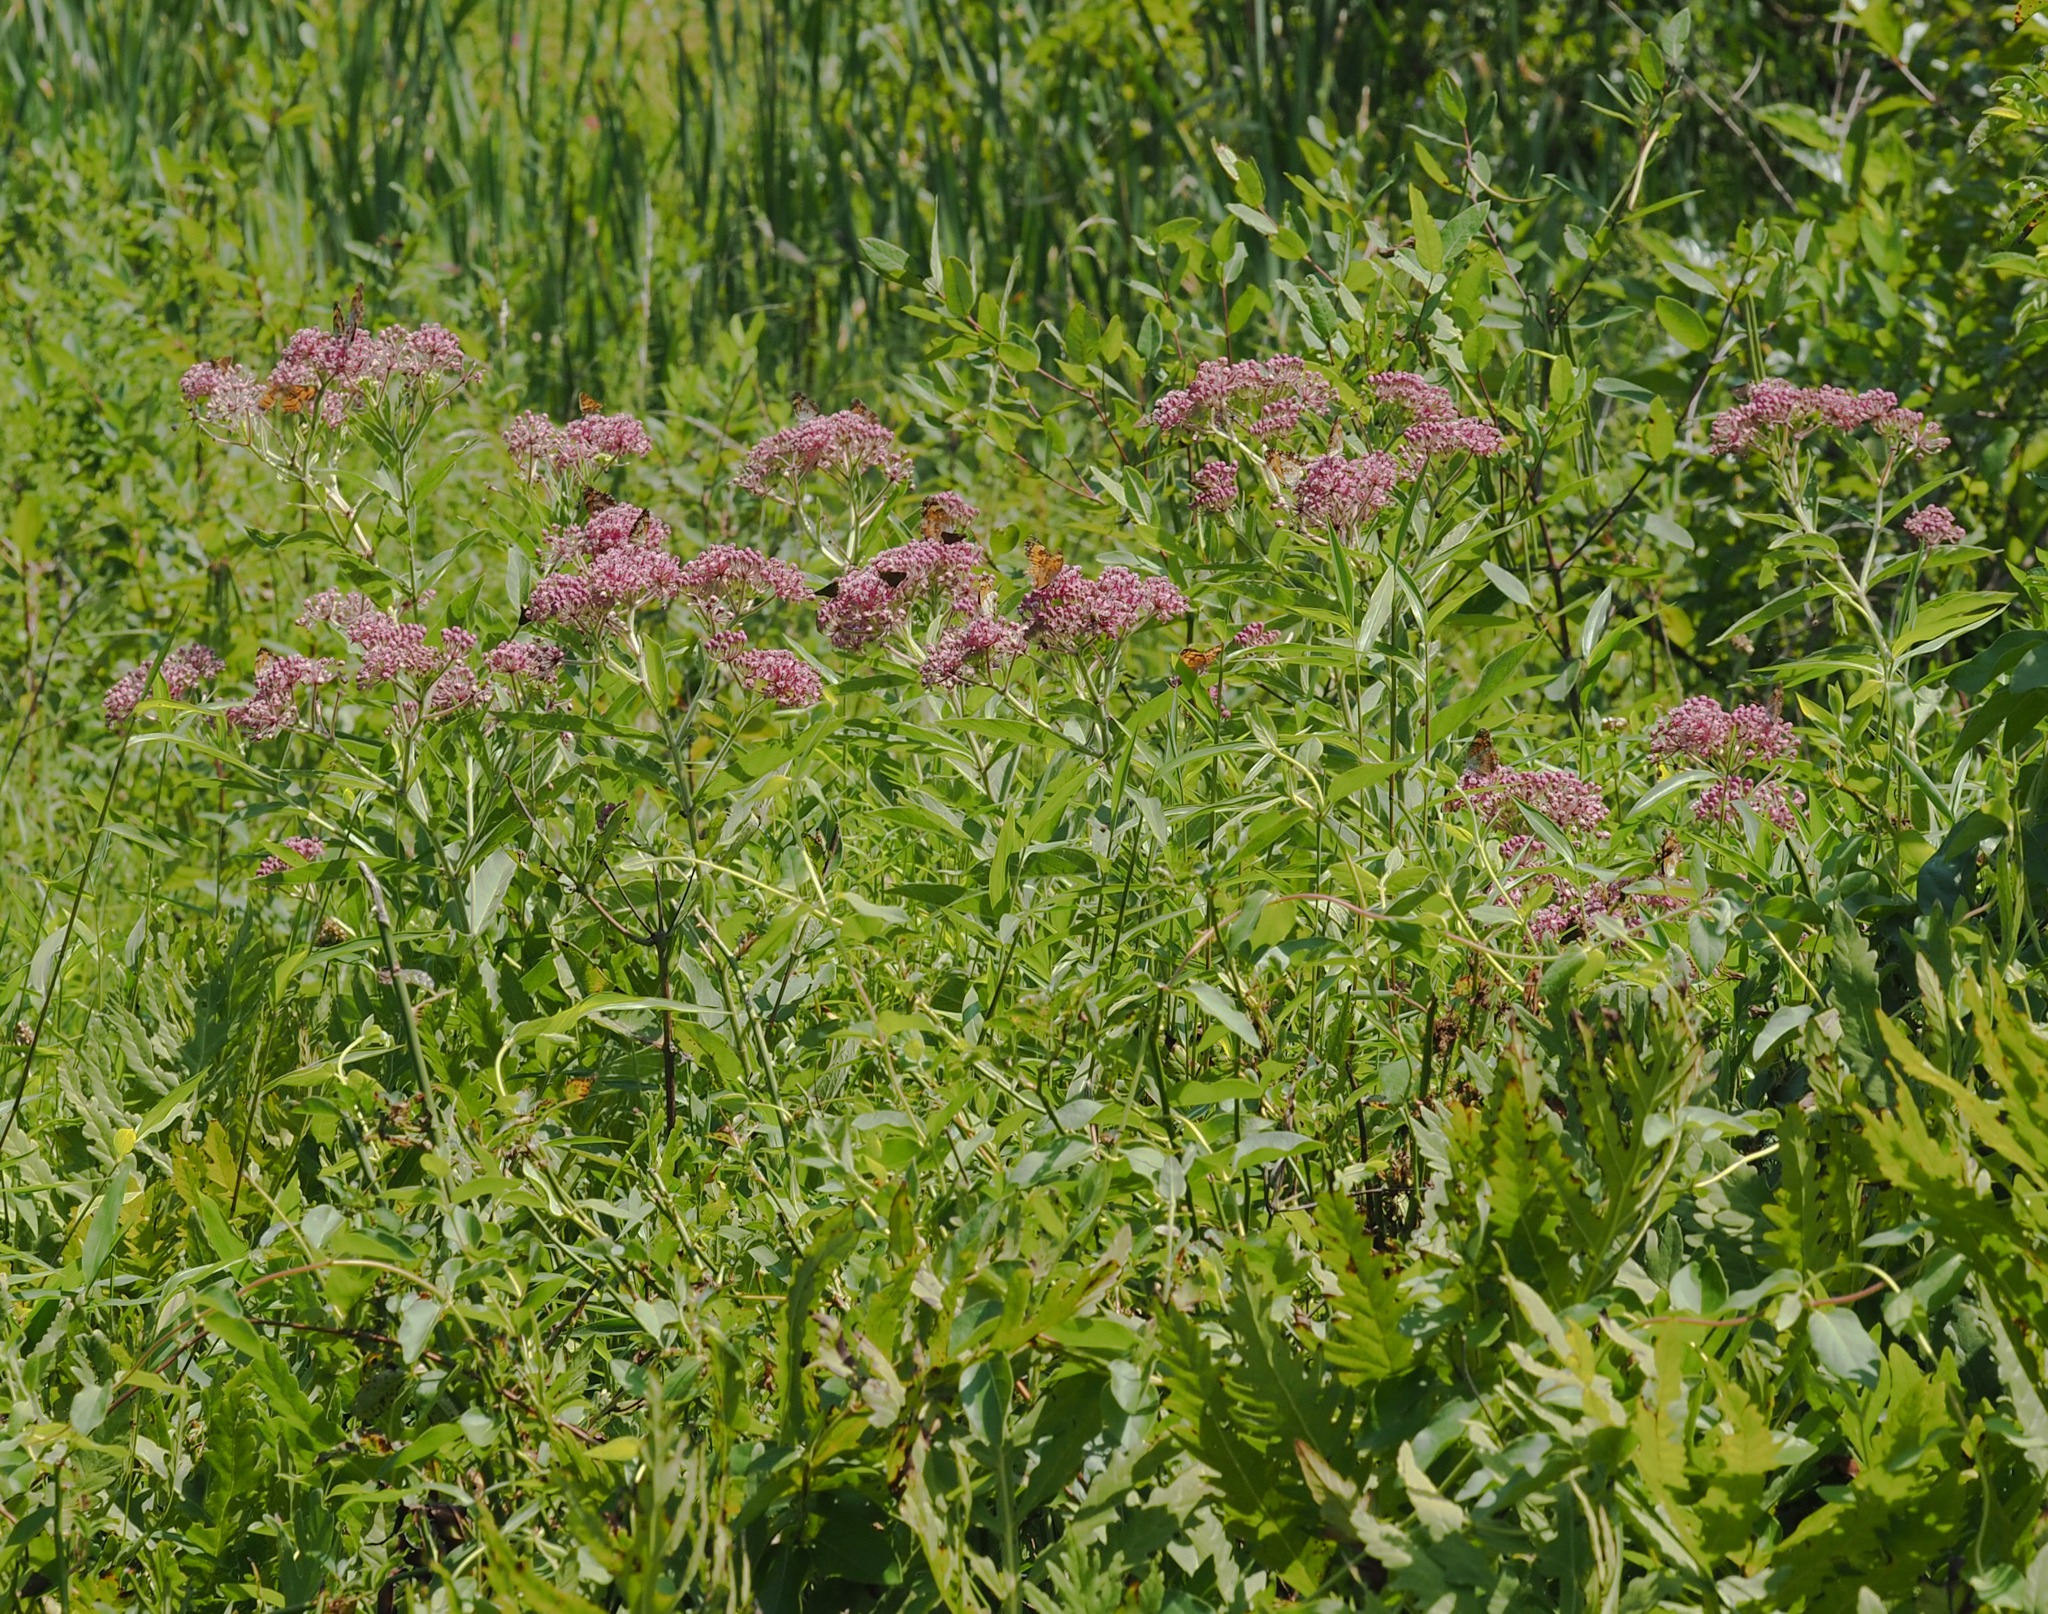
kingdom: Plantae
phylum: Tracheophyta
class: Magnoliopsida
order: Gentianales
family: Apocynaceae
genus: Asclepias
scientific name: Asclepias incarnata
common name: Swamp milkweed
